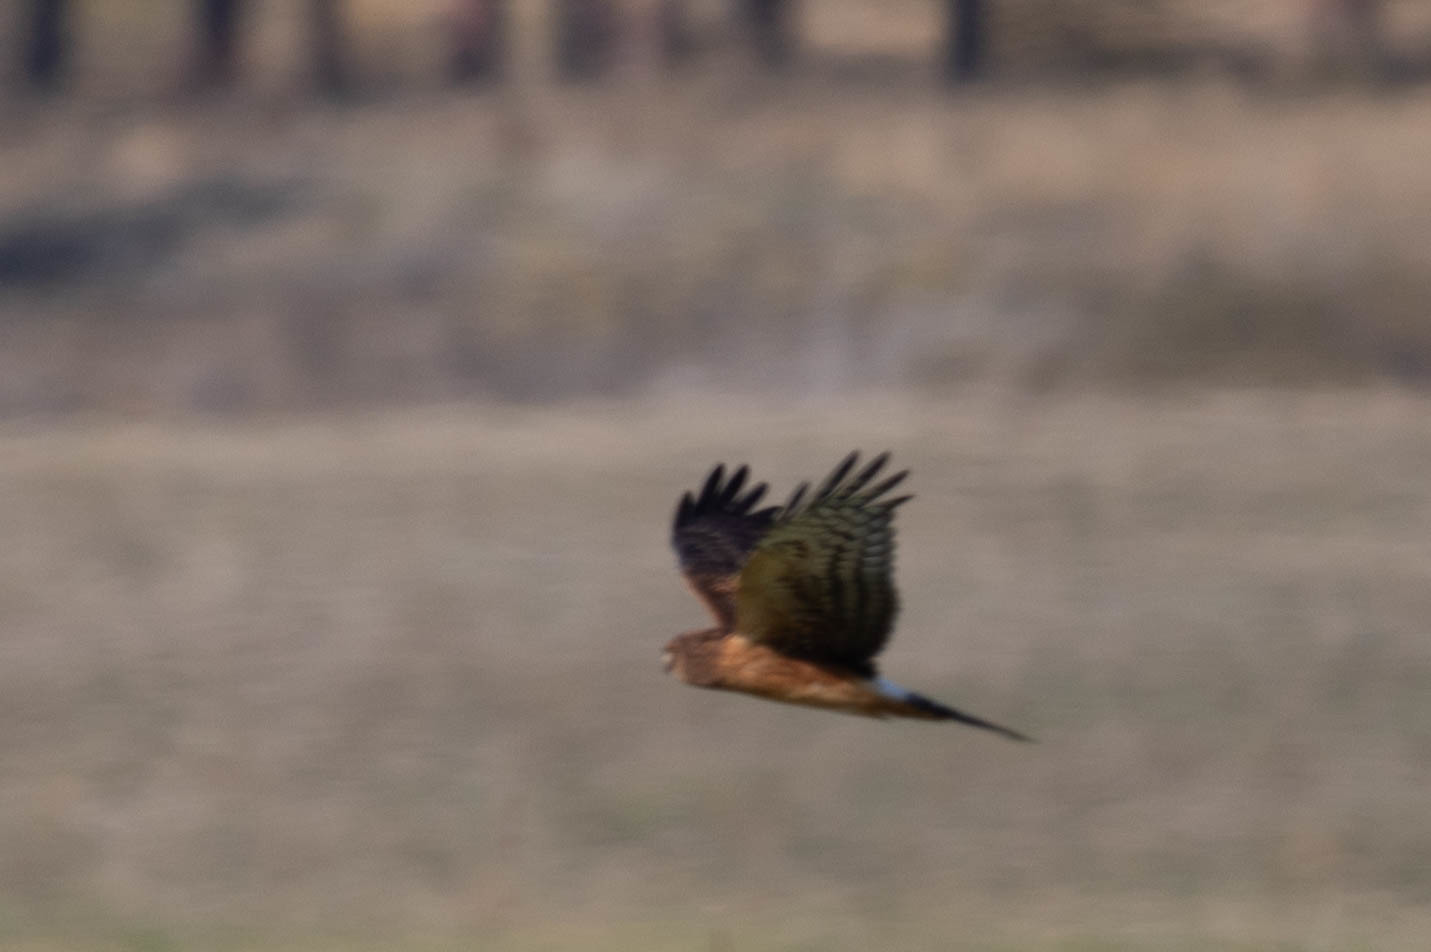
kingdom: Animalia
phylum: Chordata
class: Aves
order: Accipitriformes
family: Accipitridae
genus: Circus
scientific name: Circus cyaneus
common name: Hen harrier
